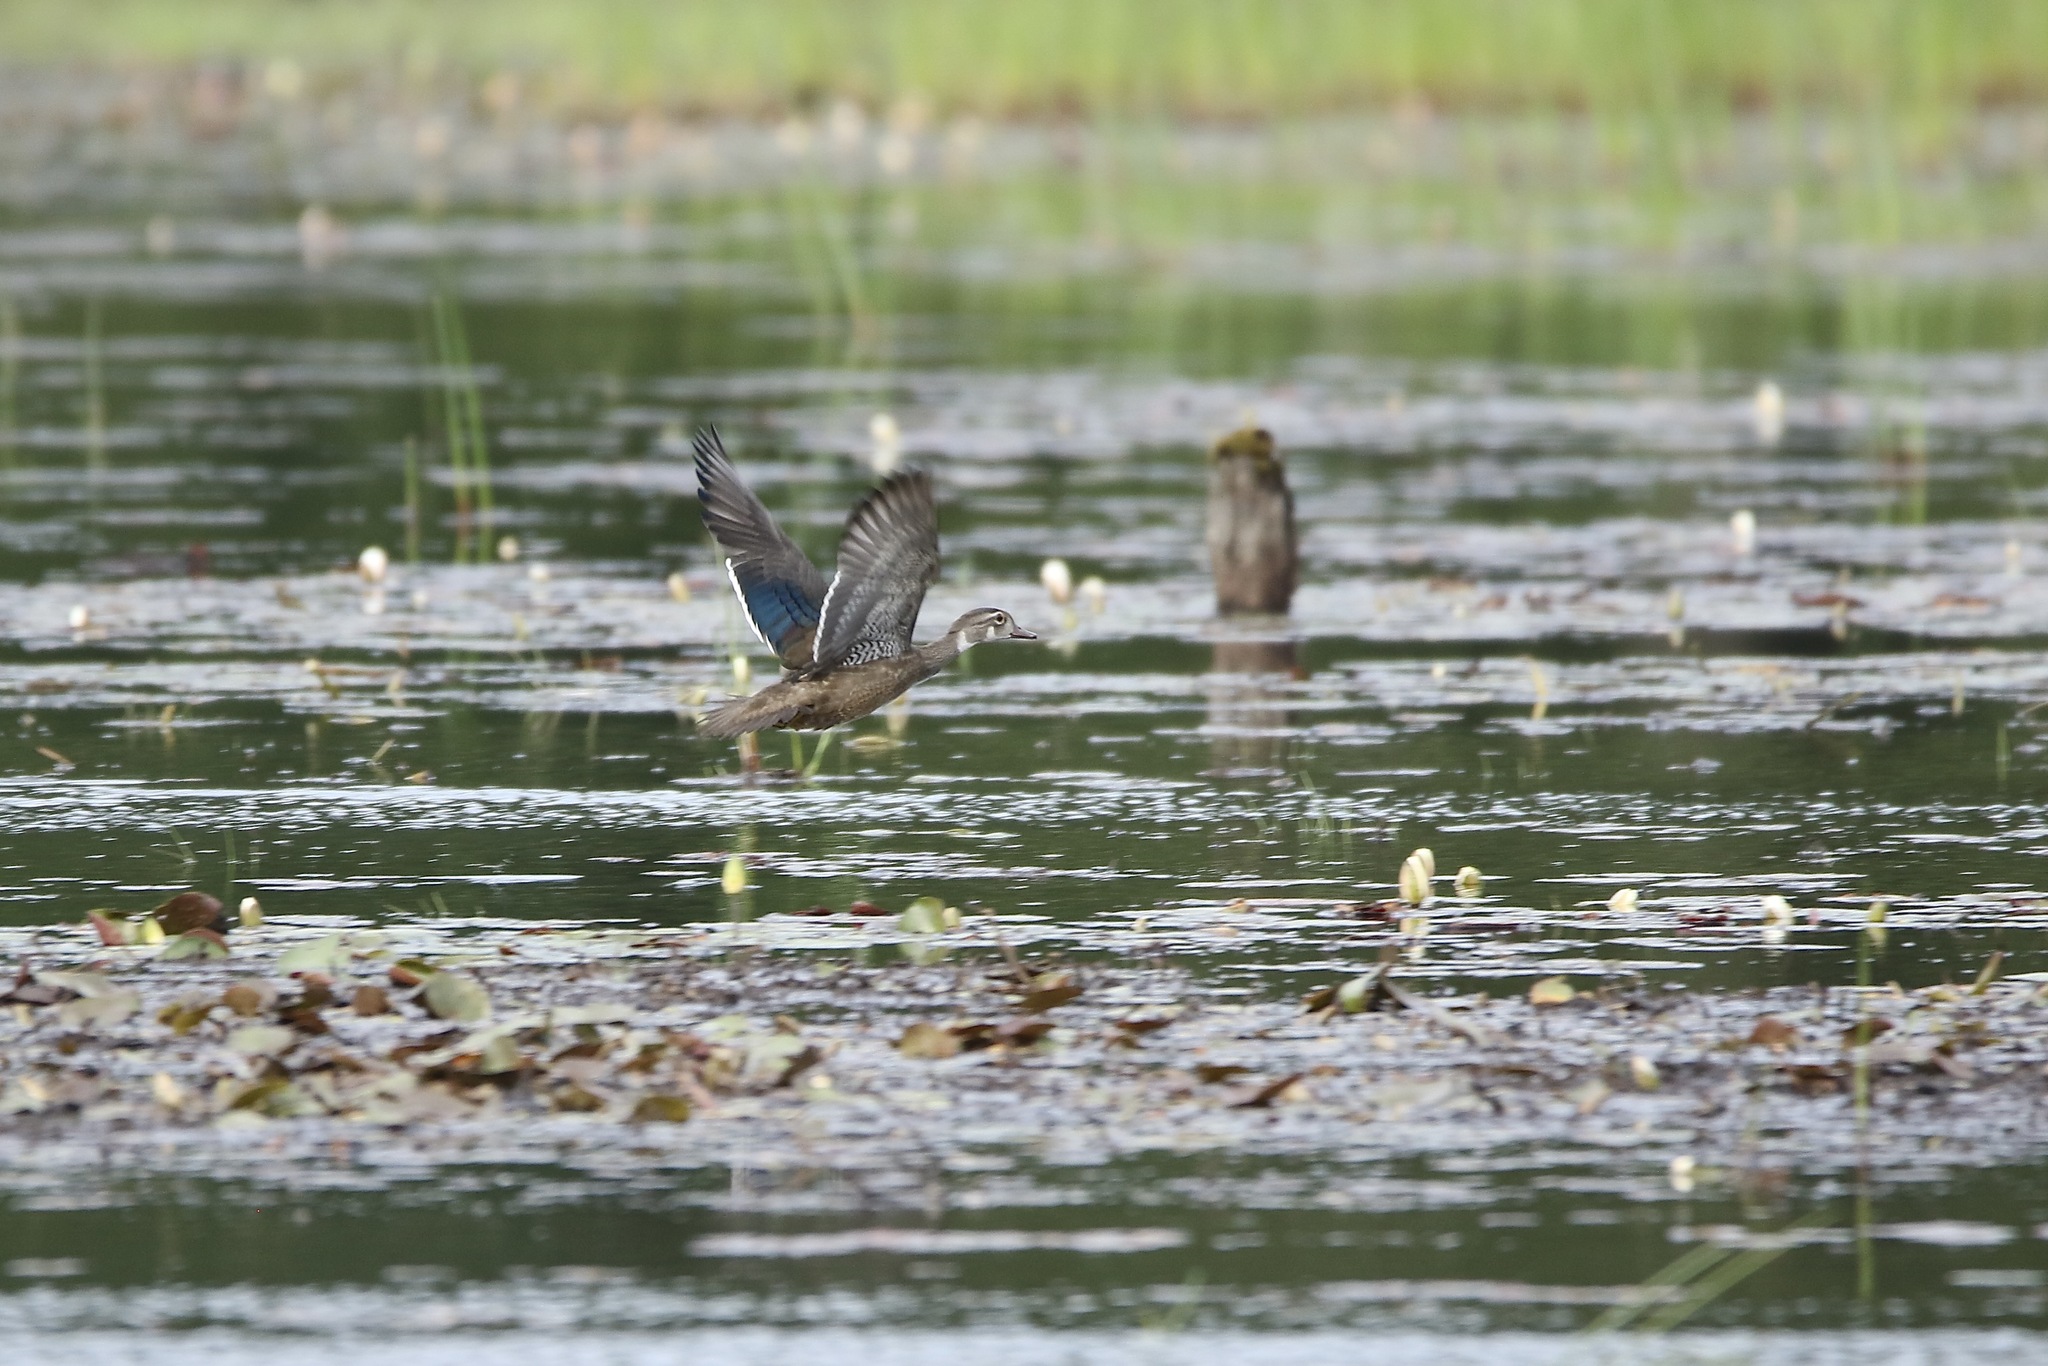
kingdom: Animalia
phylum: Chordata
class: Aves
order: Anseriformes
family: Anatidae
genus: Aix
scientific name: Aix sponsa
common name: Wood duck
